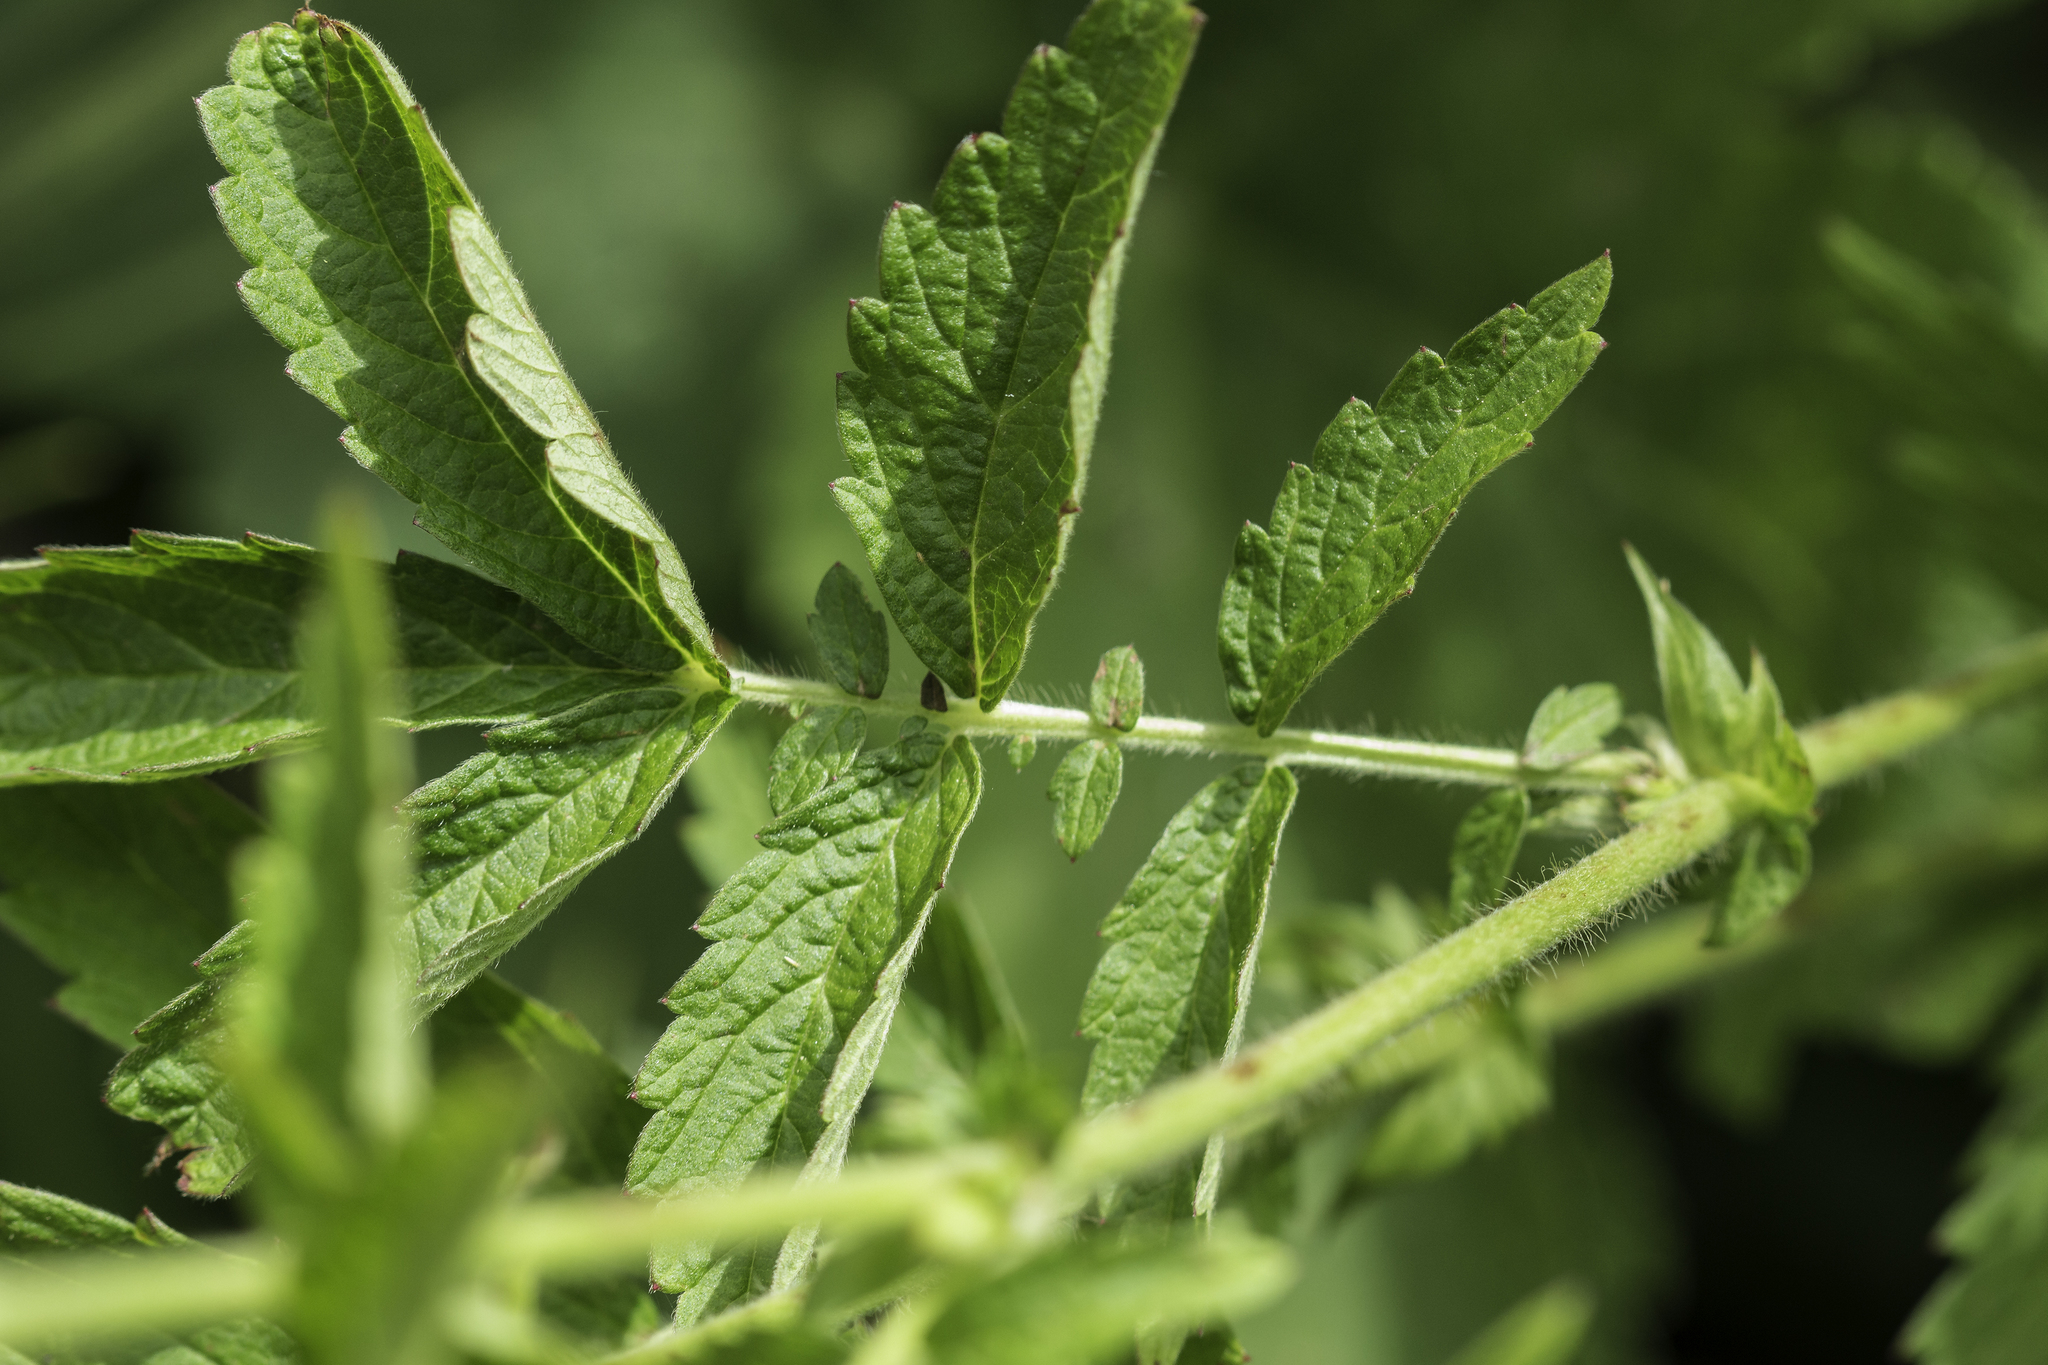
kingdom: Plantae
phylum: Tracheophyta
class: Magnoliopsida
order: Rosales
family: Rosaceae
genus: Agrimonia
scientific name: Agrimonia striata
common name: Britton's agrimony
